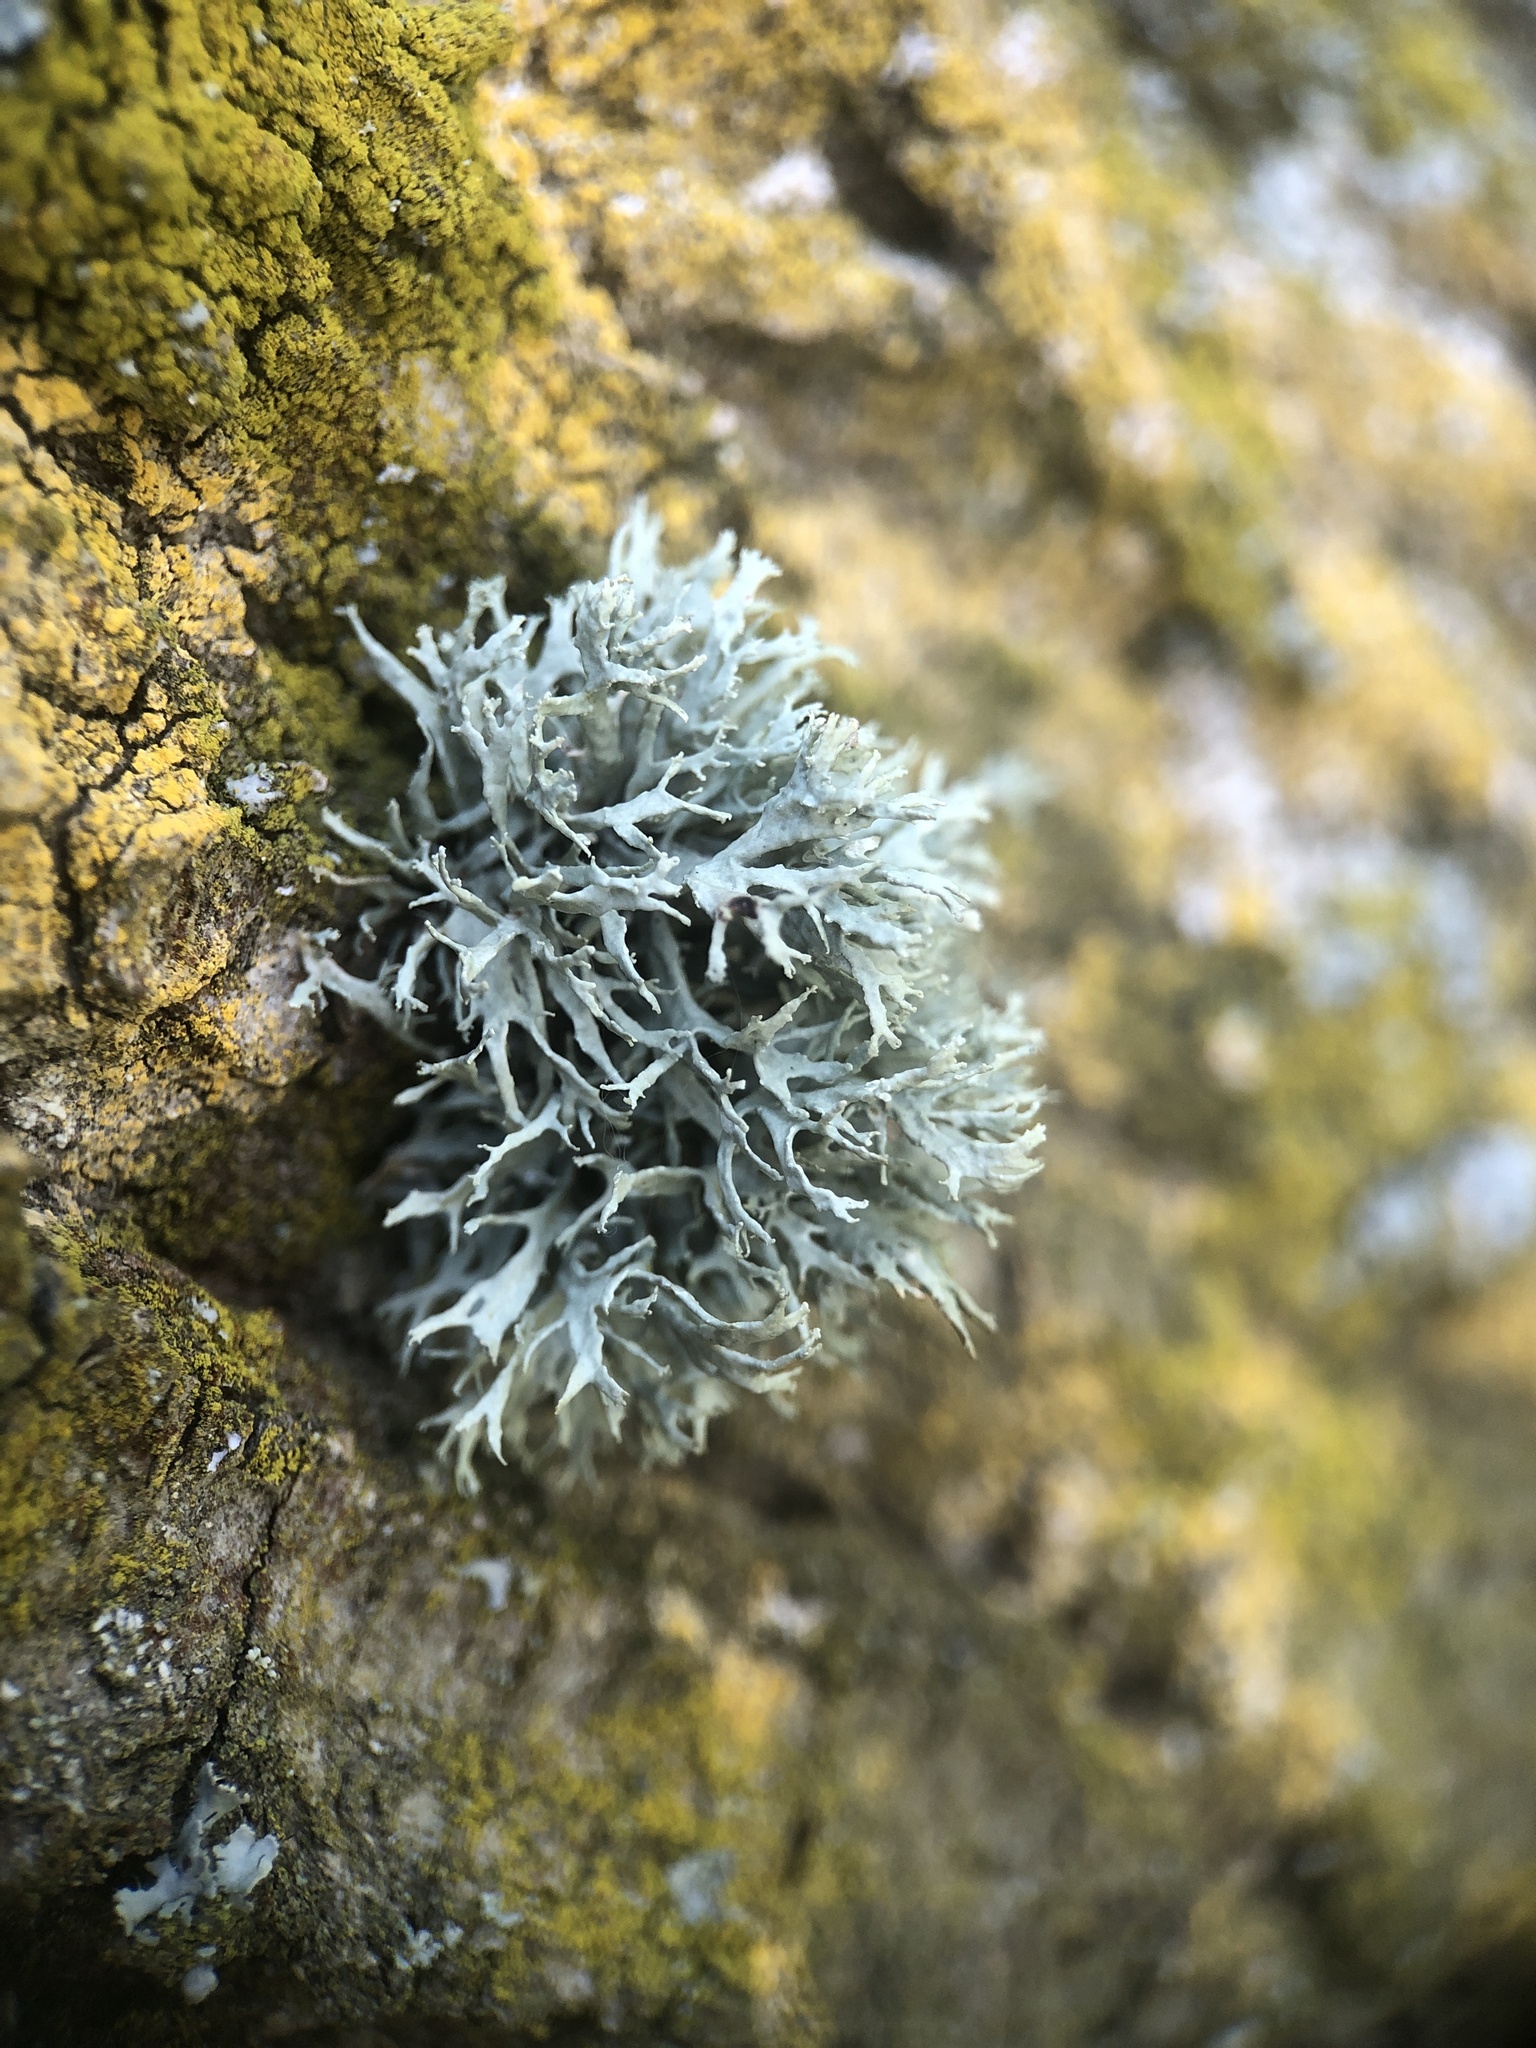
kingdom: Fungi
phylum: Ascomycota
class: Lecanoromycetes
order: Lecanorales
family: Parmeliaceae
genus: Evernia
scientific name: Evernia prunastri
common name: Oak moss
